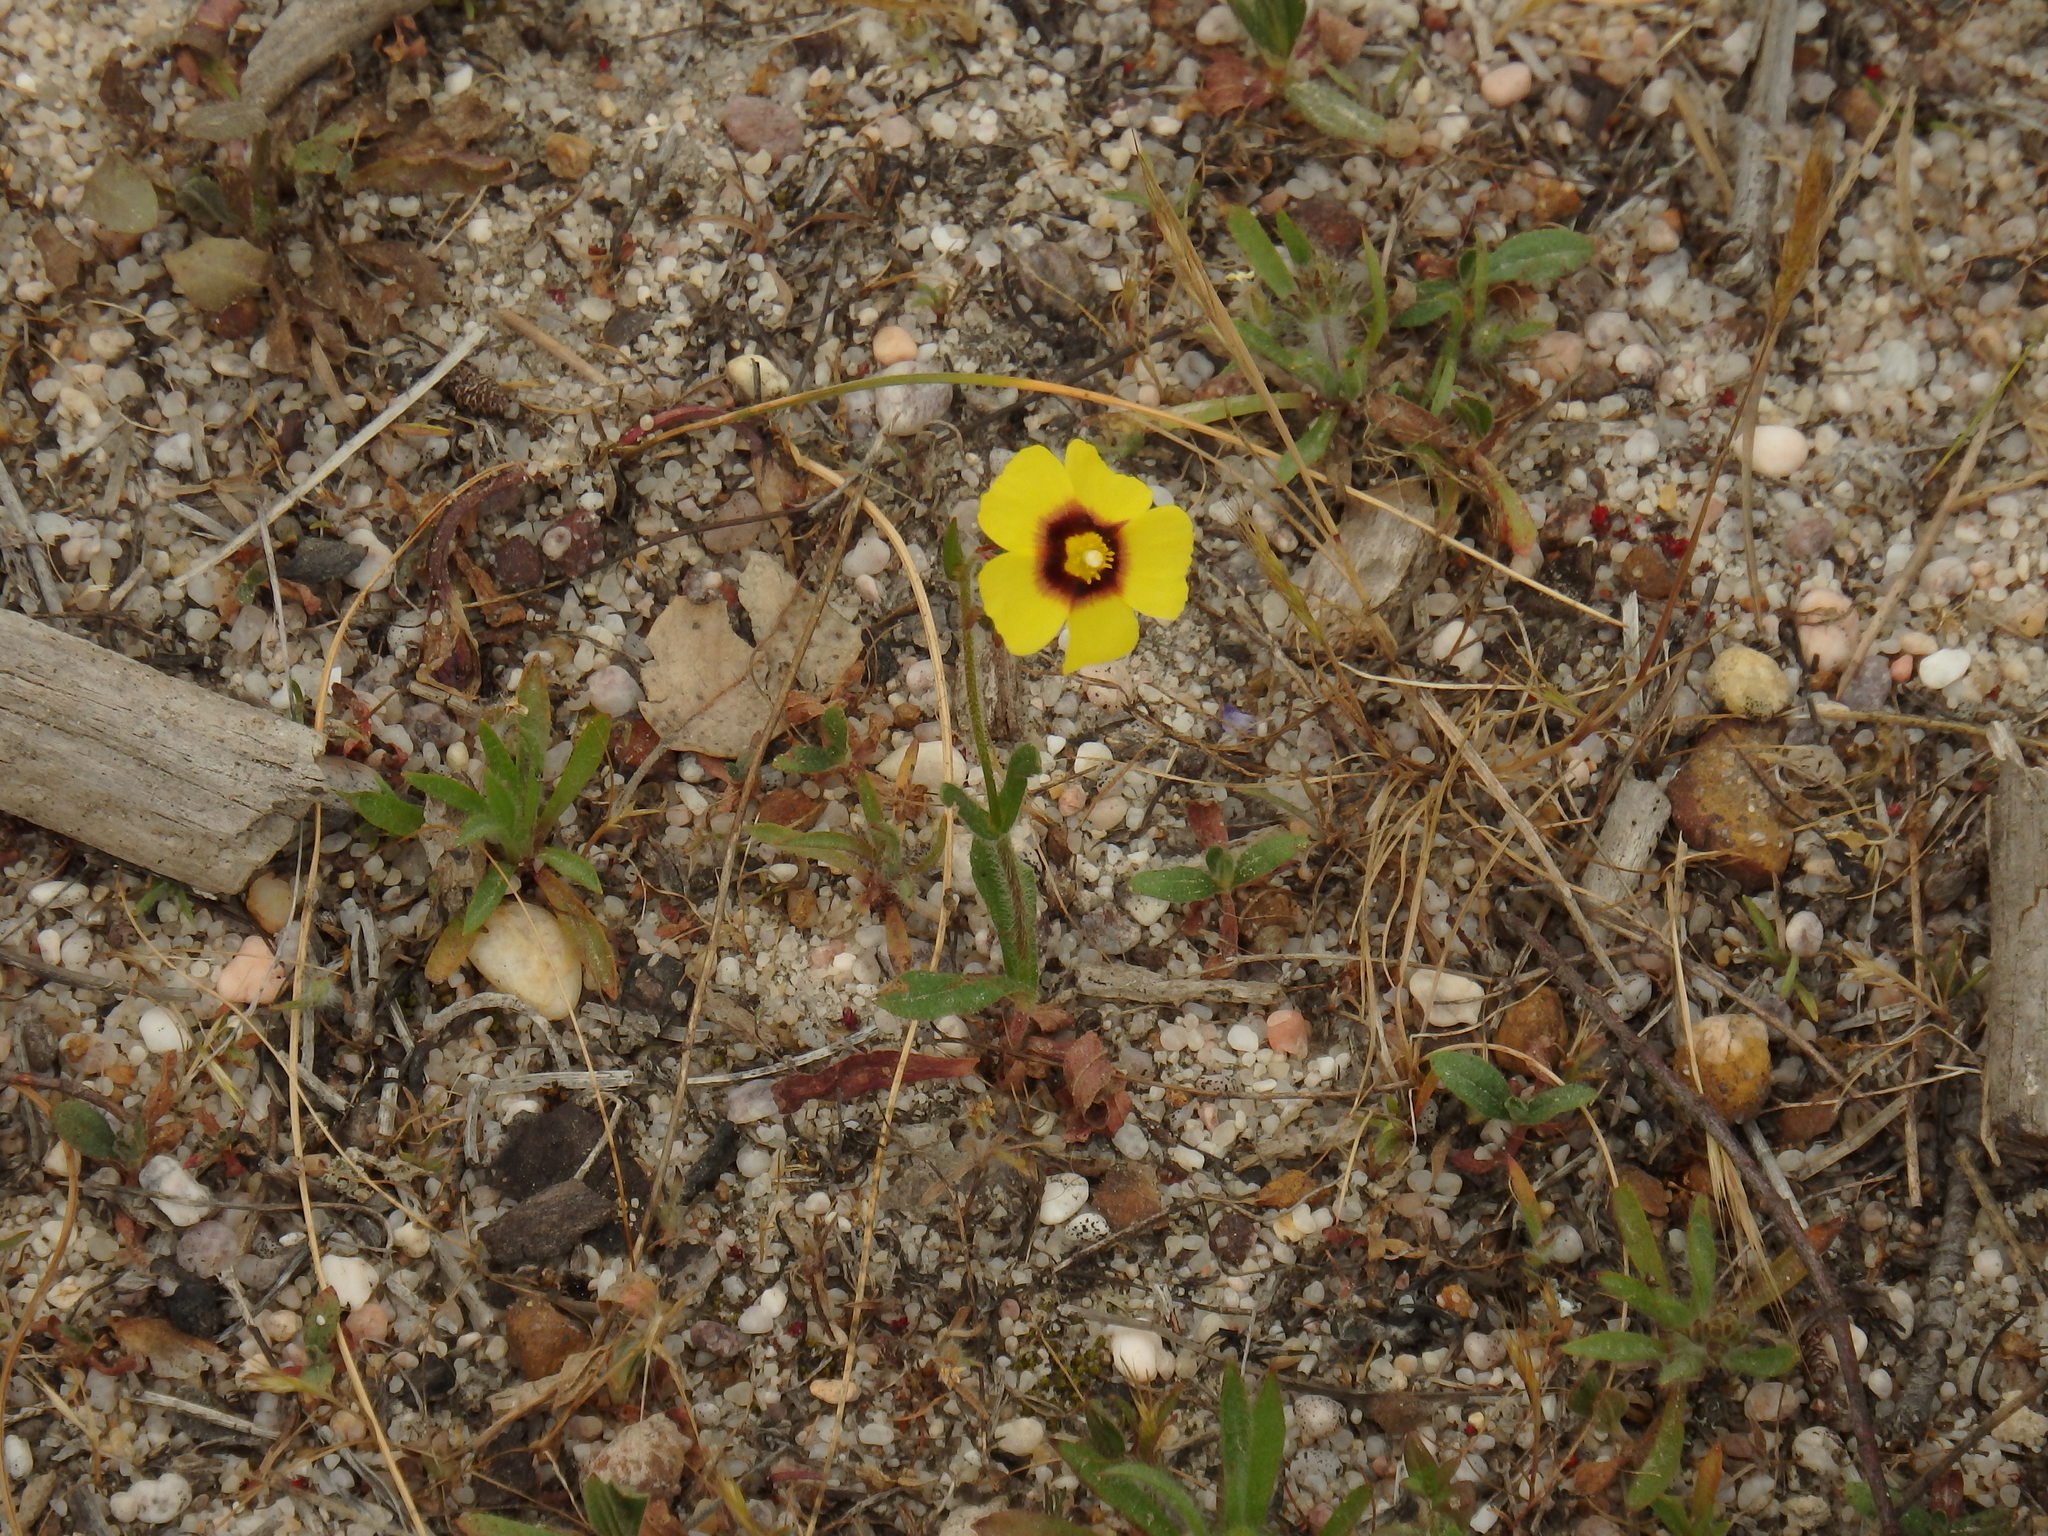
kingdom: Plantae
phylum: Tracheophyta
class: Magnoliopsida
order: Malvales
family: Cistaceae
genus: Tuberaria
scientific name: Tuberaria guttata
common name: Spotted rock-rose
